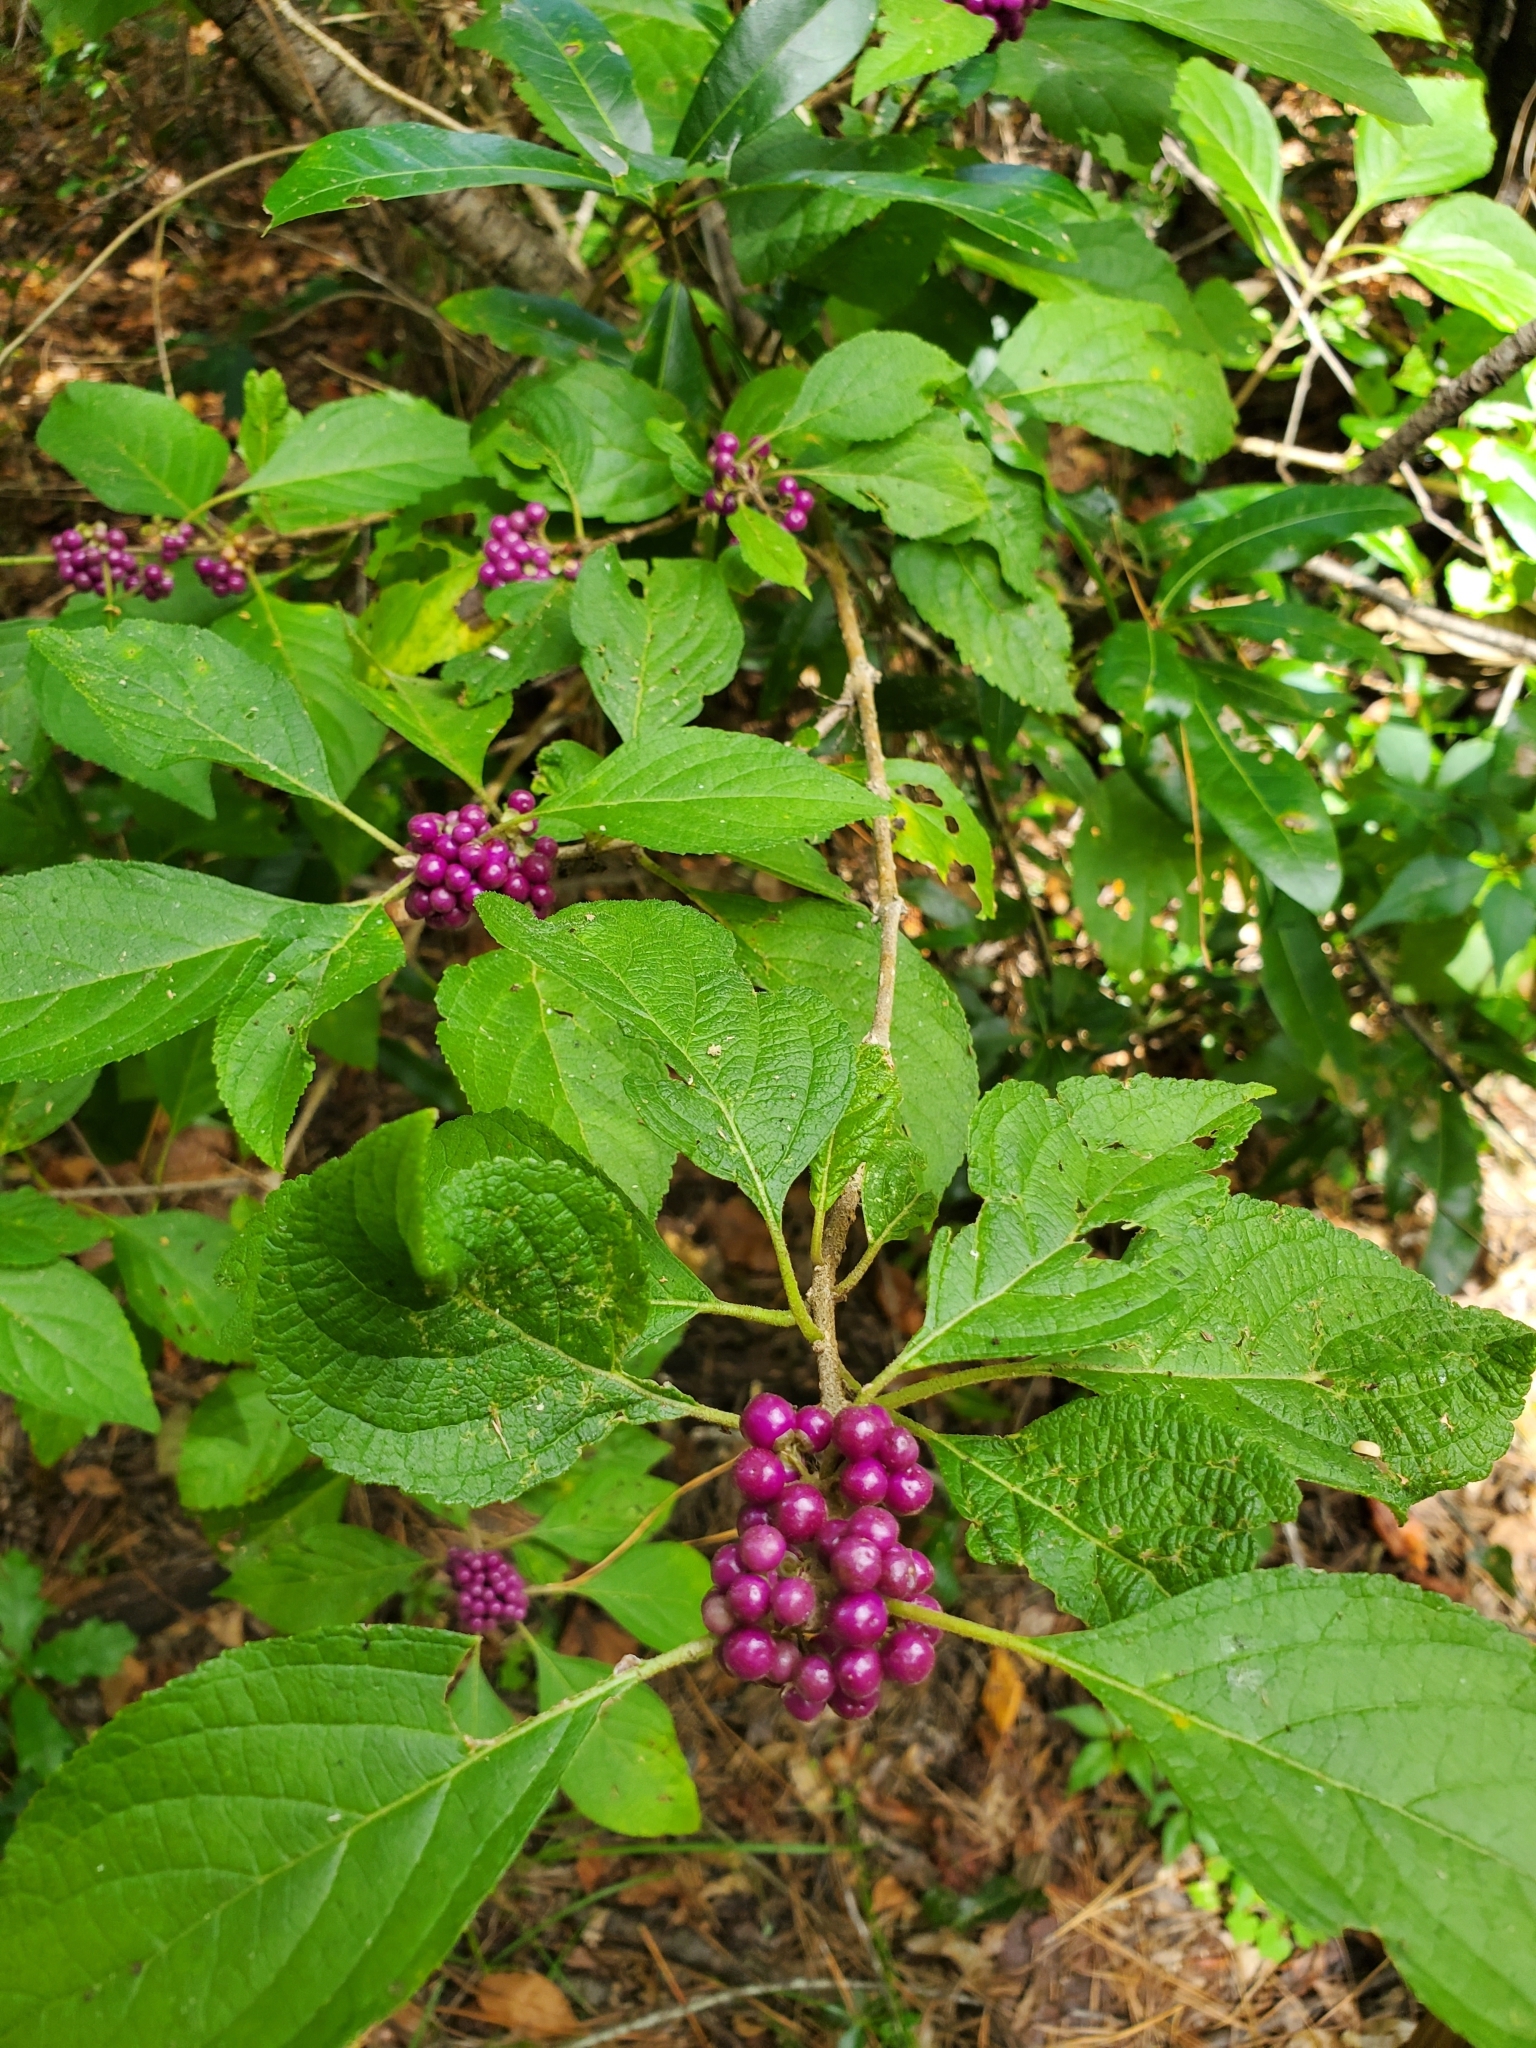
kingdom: Plantae
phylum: Tracheophyta
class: Magnoliopsida
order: Lamiales
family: Lamiaceae
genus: Callicarpa
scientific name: Callicarpa americana
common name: American beautyberry
